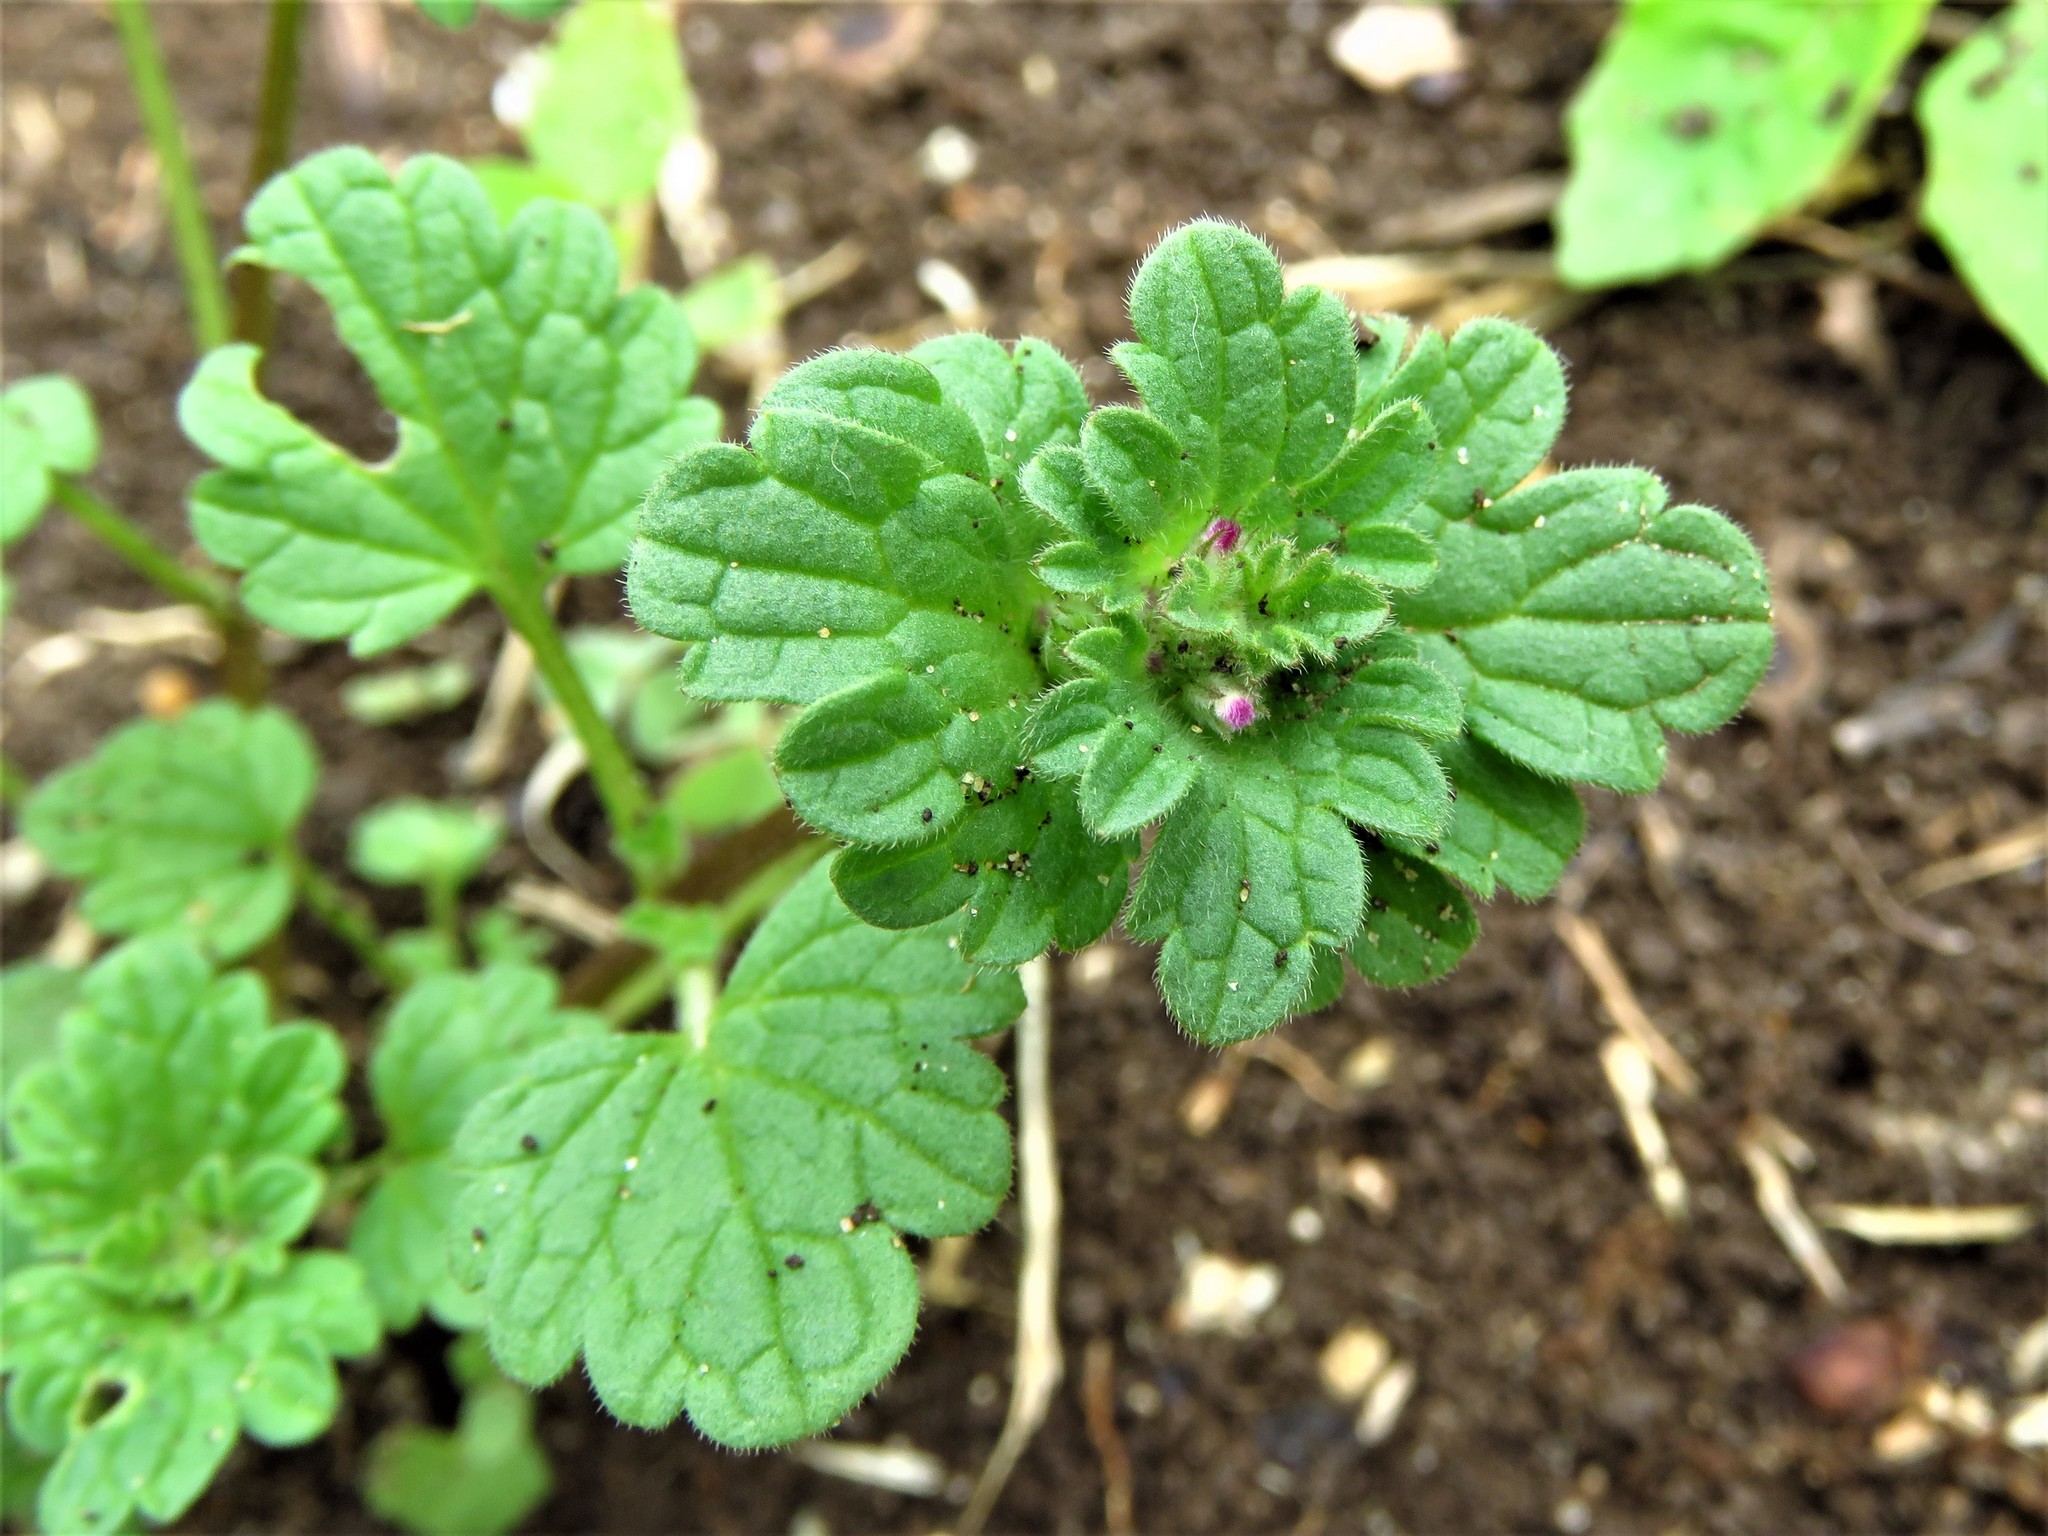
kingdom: Plantae
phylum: Tracheophyta
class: Magnoliopsida
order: Lamiales
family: Lamiaceae
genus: Lamium
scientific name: Lamium amplexicaule
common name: Henbit dead-nettle
